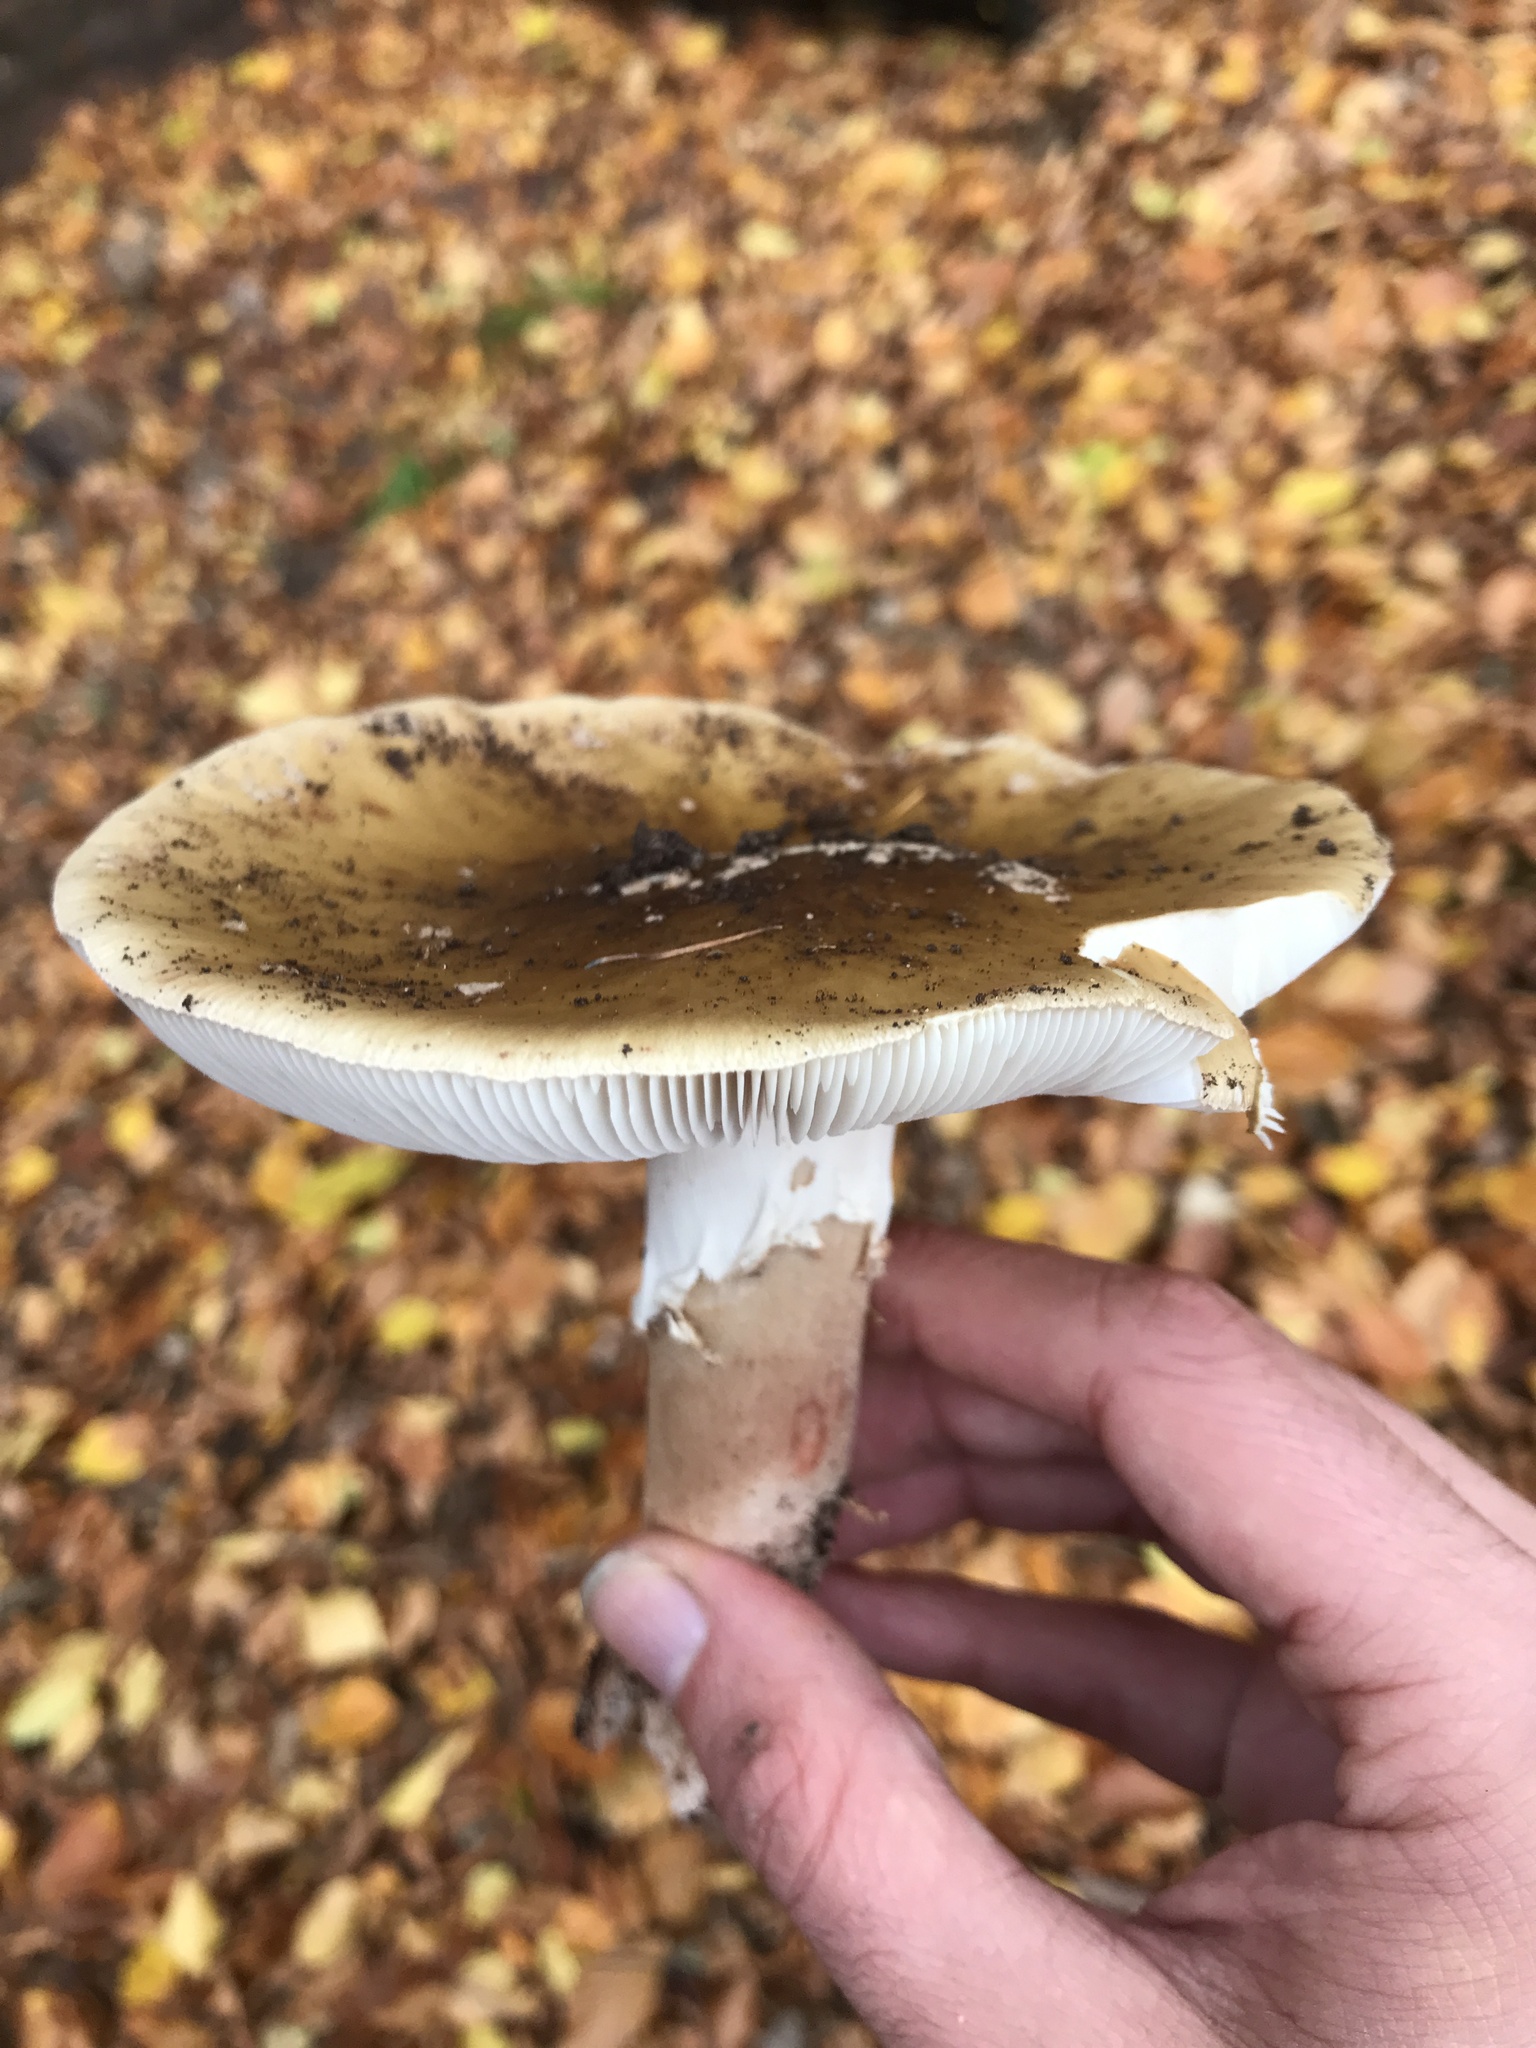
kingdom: Fungi
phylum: Basidiomycota
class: Agaricomycetes
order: Agaricales
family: Amanitaceae
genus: Amanita
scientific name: Amanita rubescens
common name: Blusher
